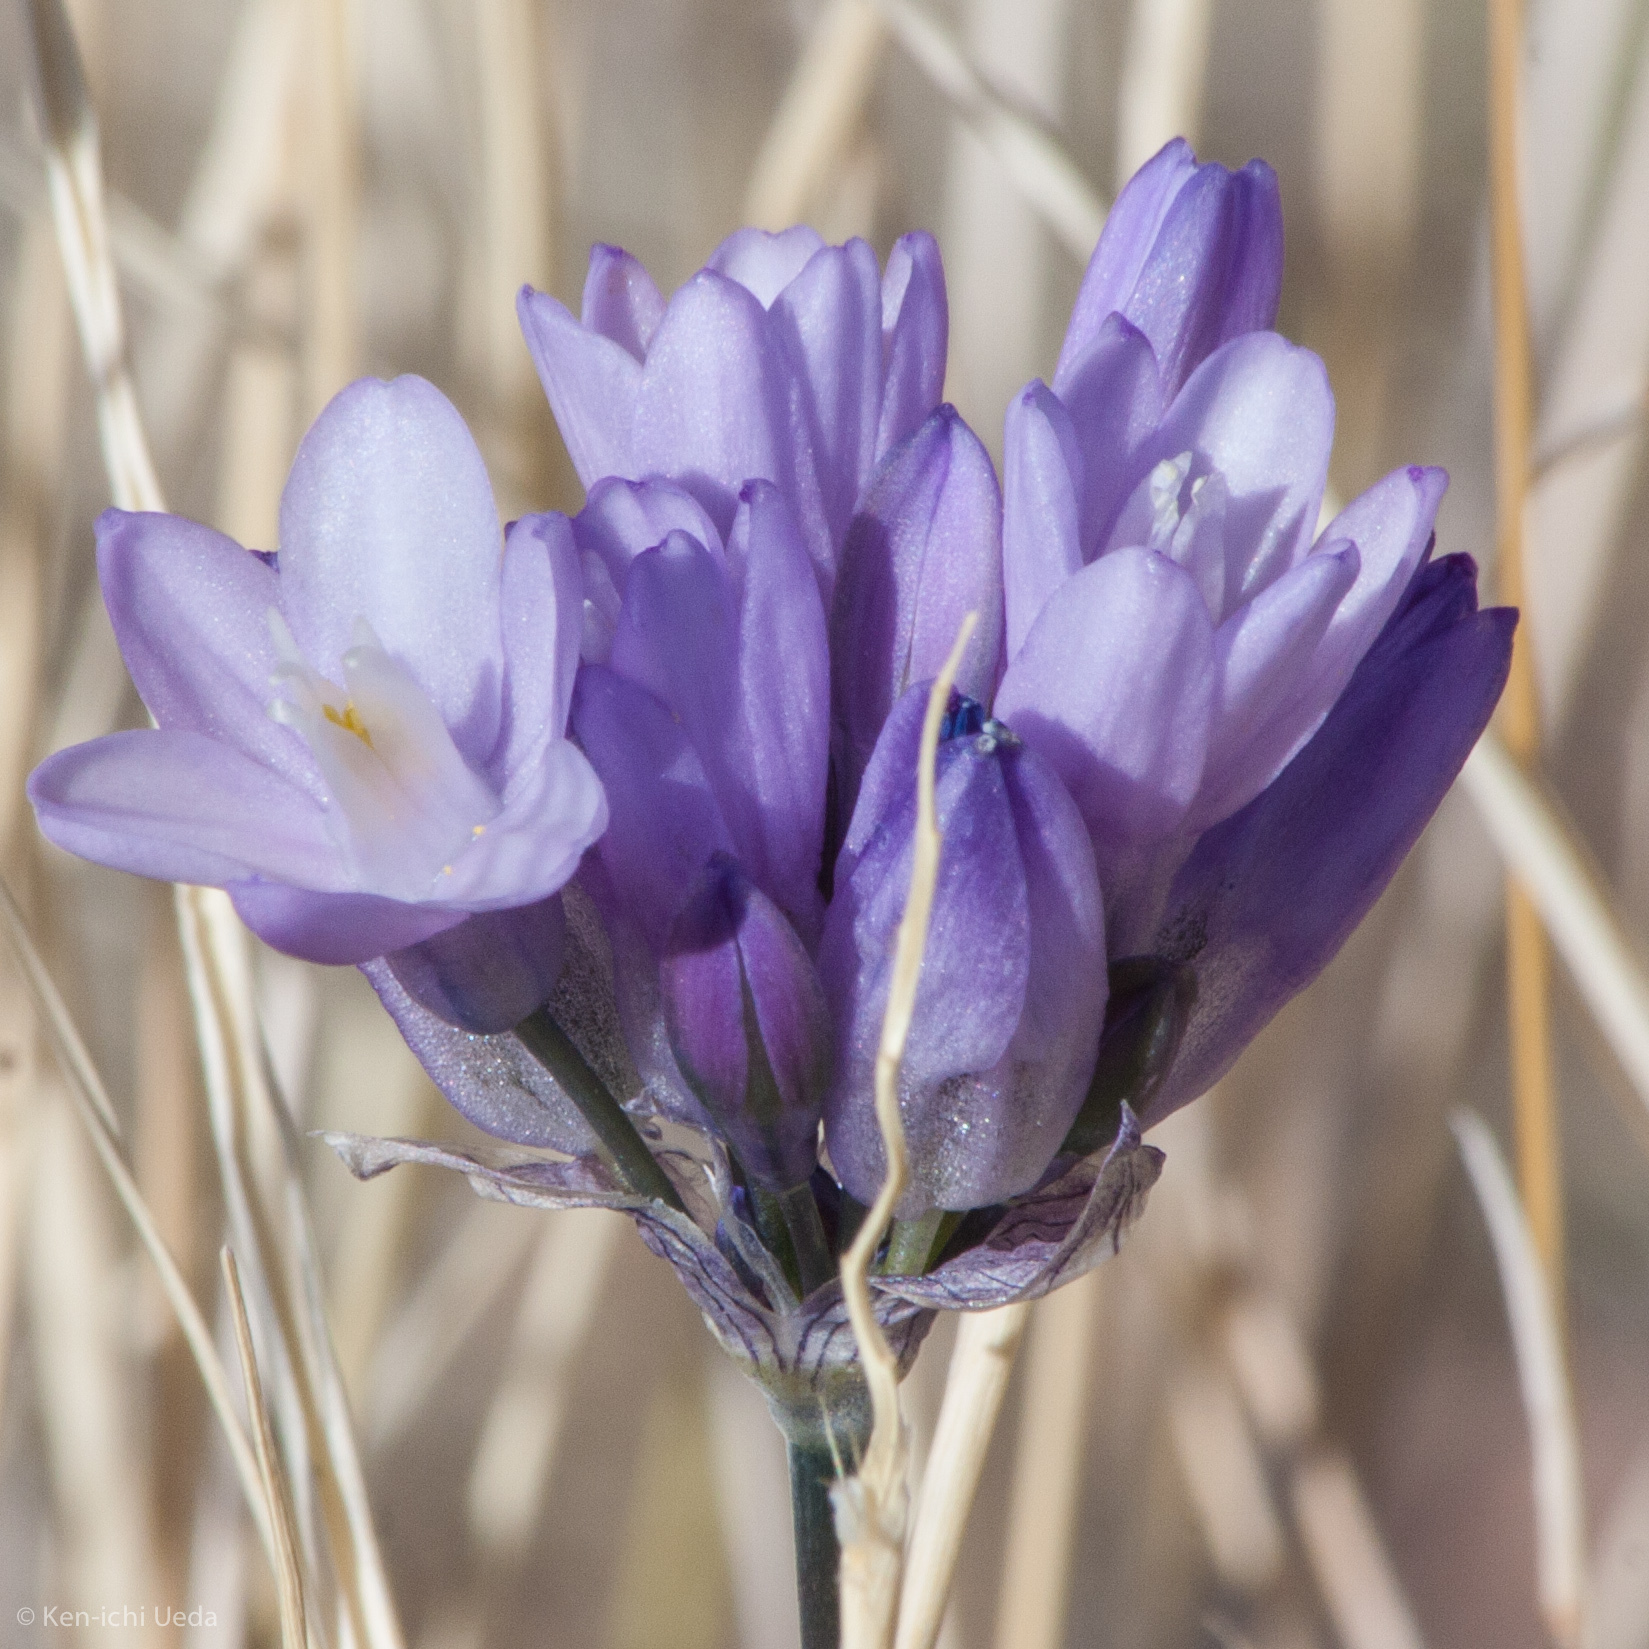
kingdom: Plantae
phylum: Tracheophyta
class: Liliopsida
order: Asparagales
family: Asparagaceae
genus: Dipterostemon
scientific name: Dipterostemon capitatus
